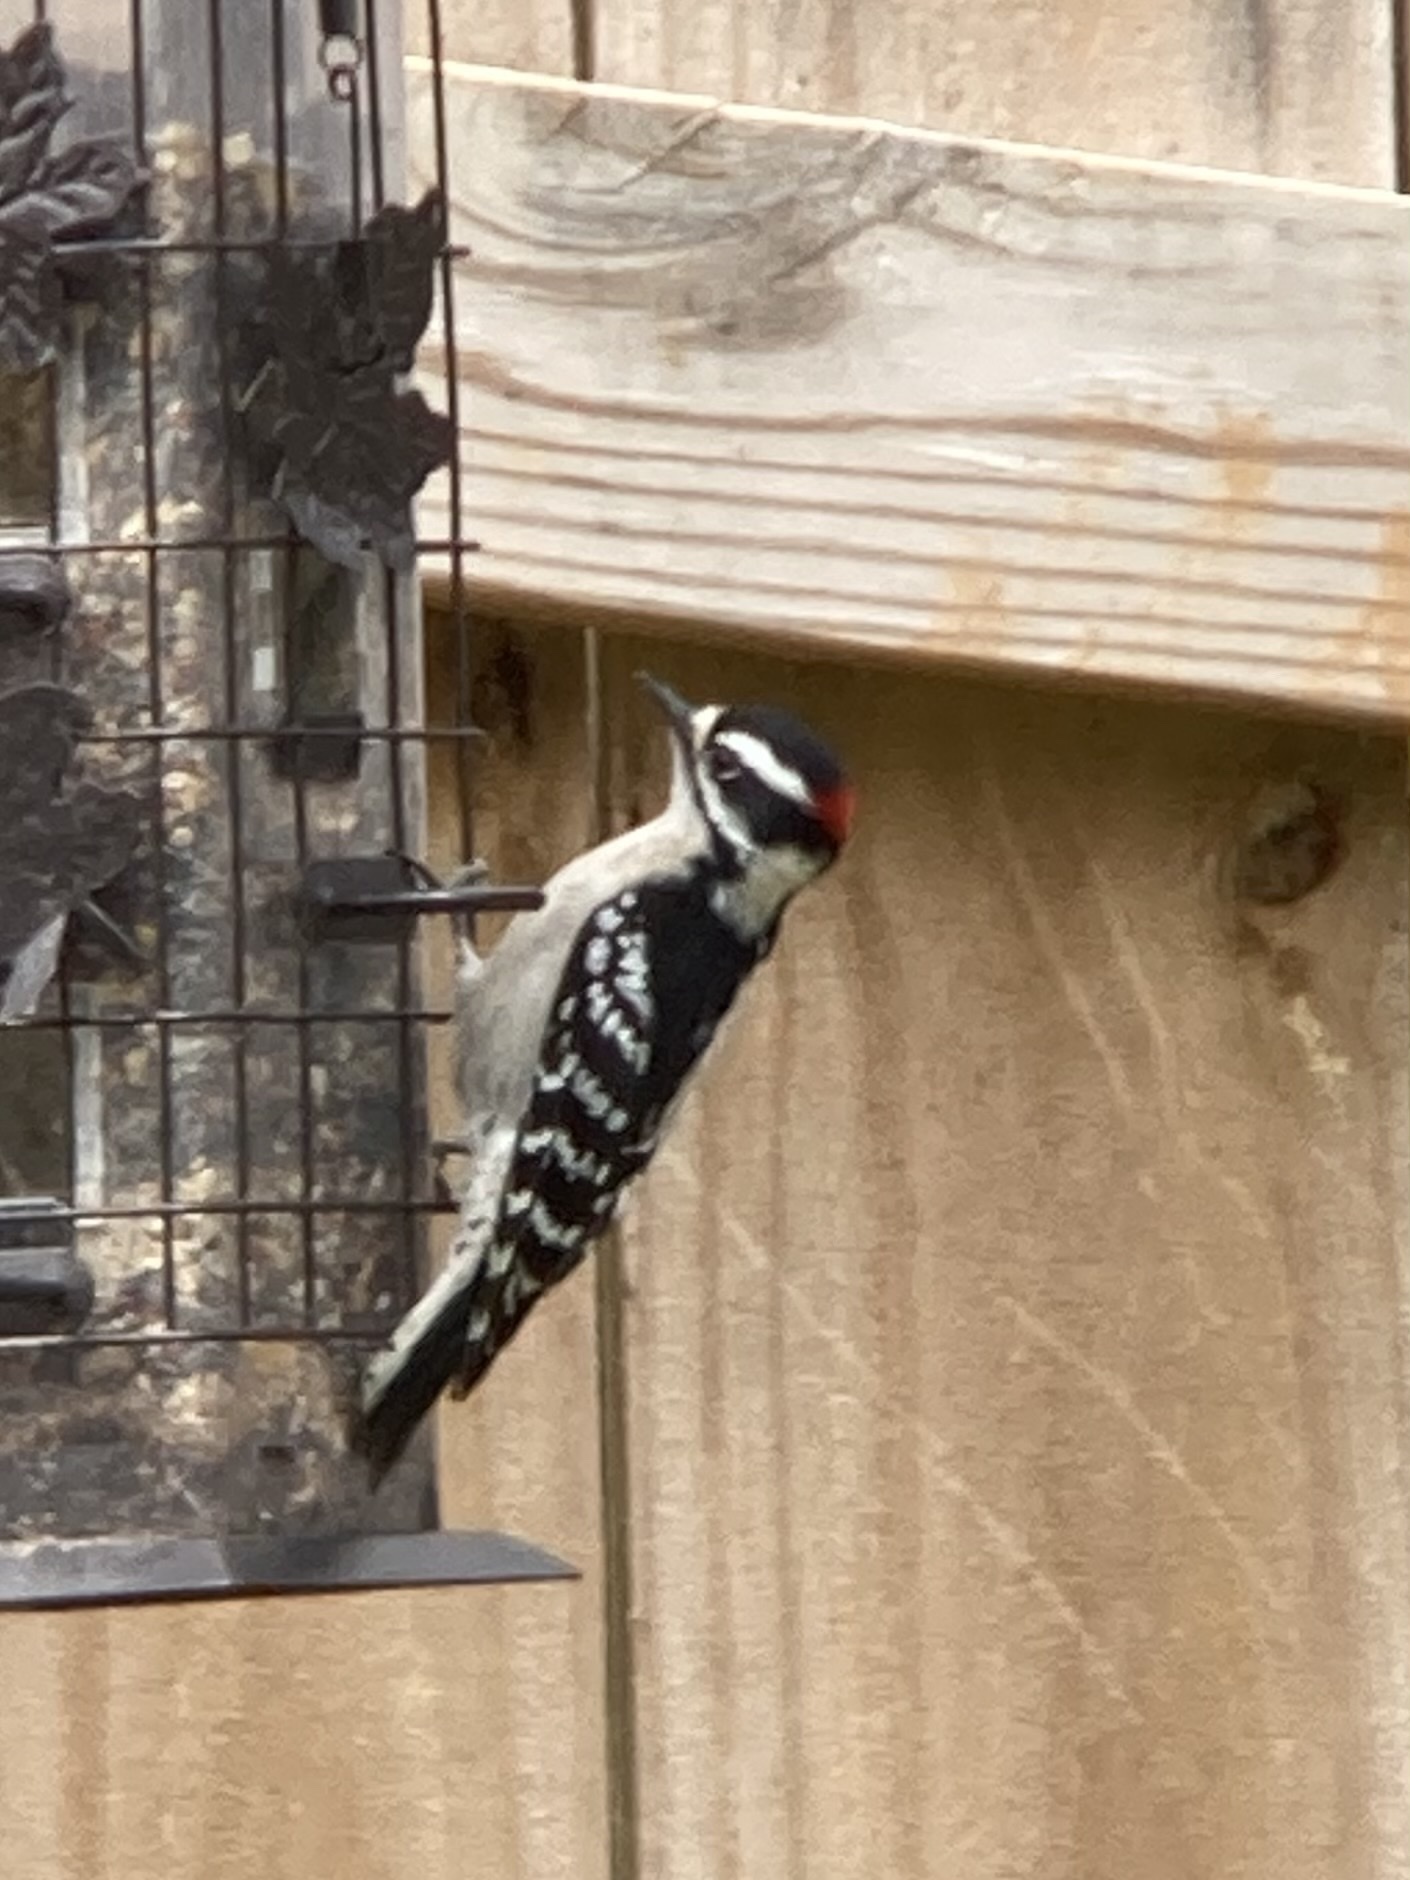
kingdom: Animalia
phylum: Chordata
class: Aves
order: Piciformes
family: Picidae
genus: Dryobates
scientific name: Dryobates pubescens
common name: Downy woodpecker
